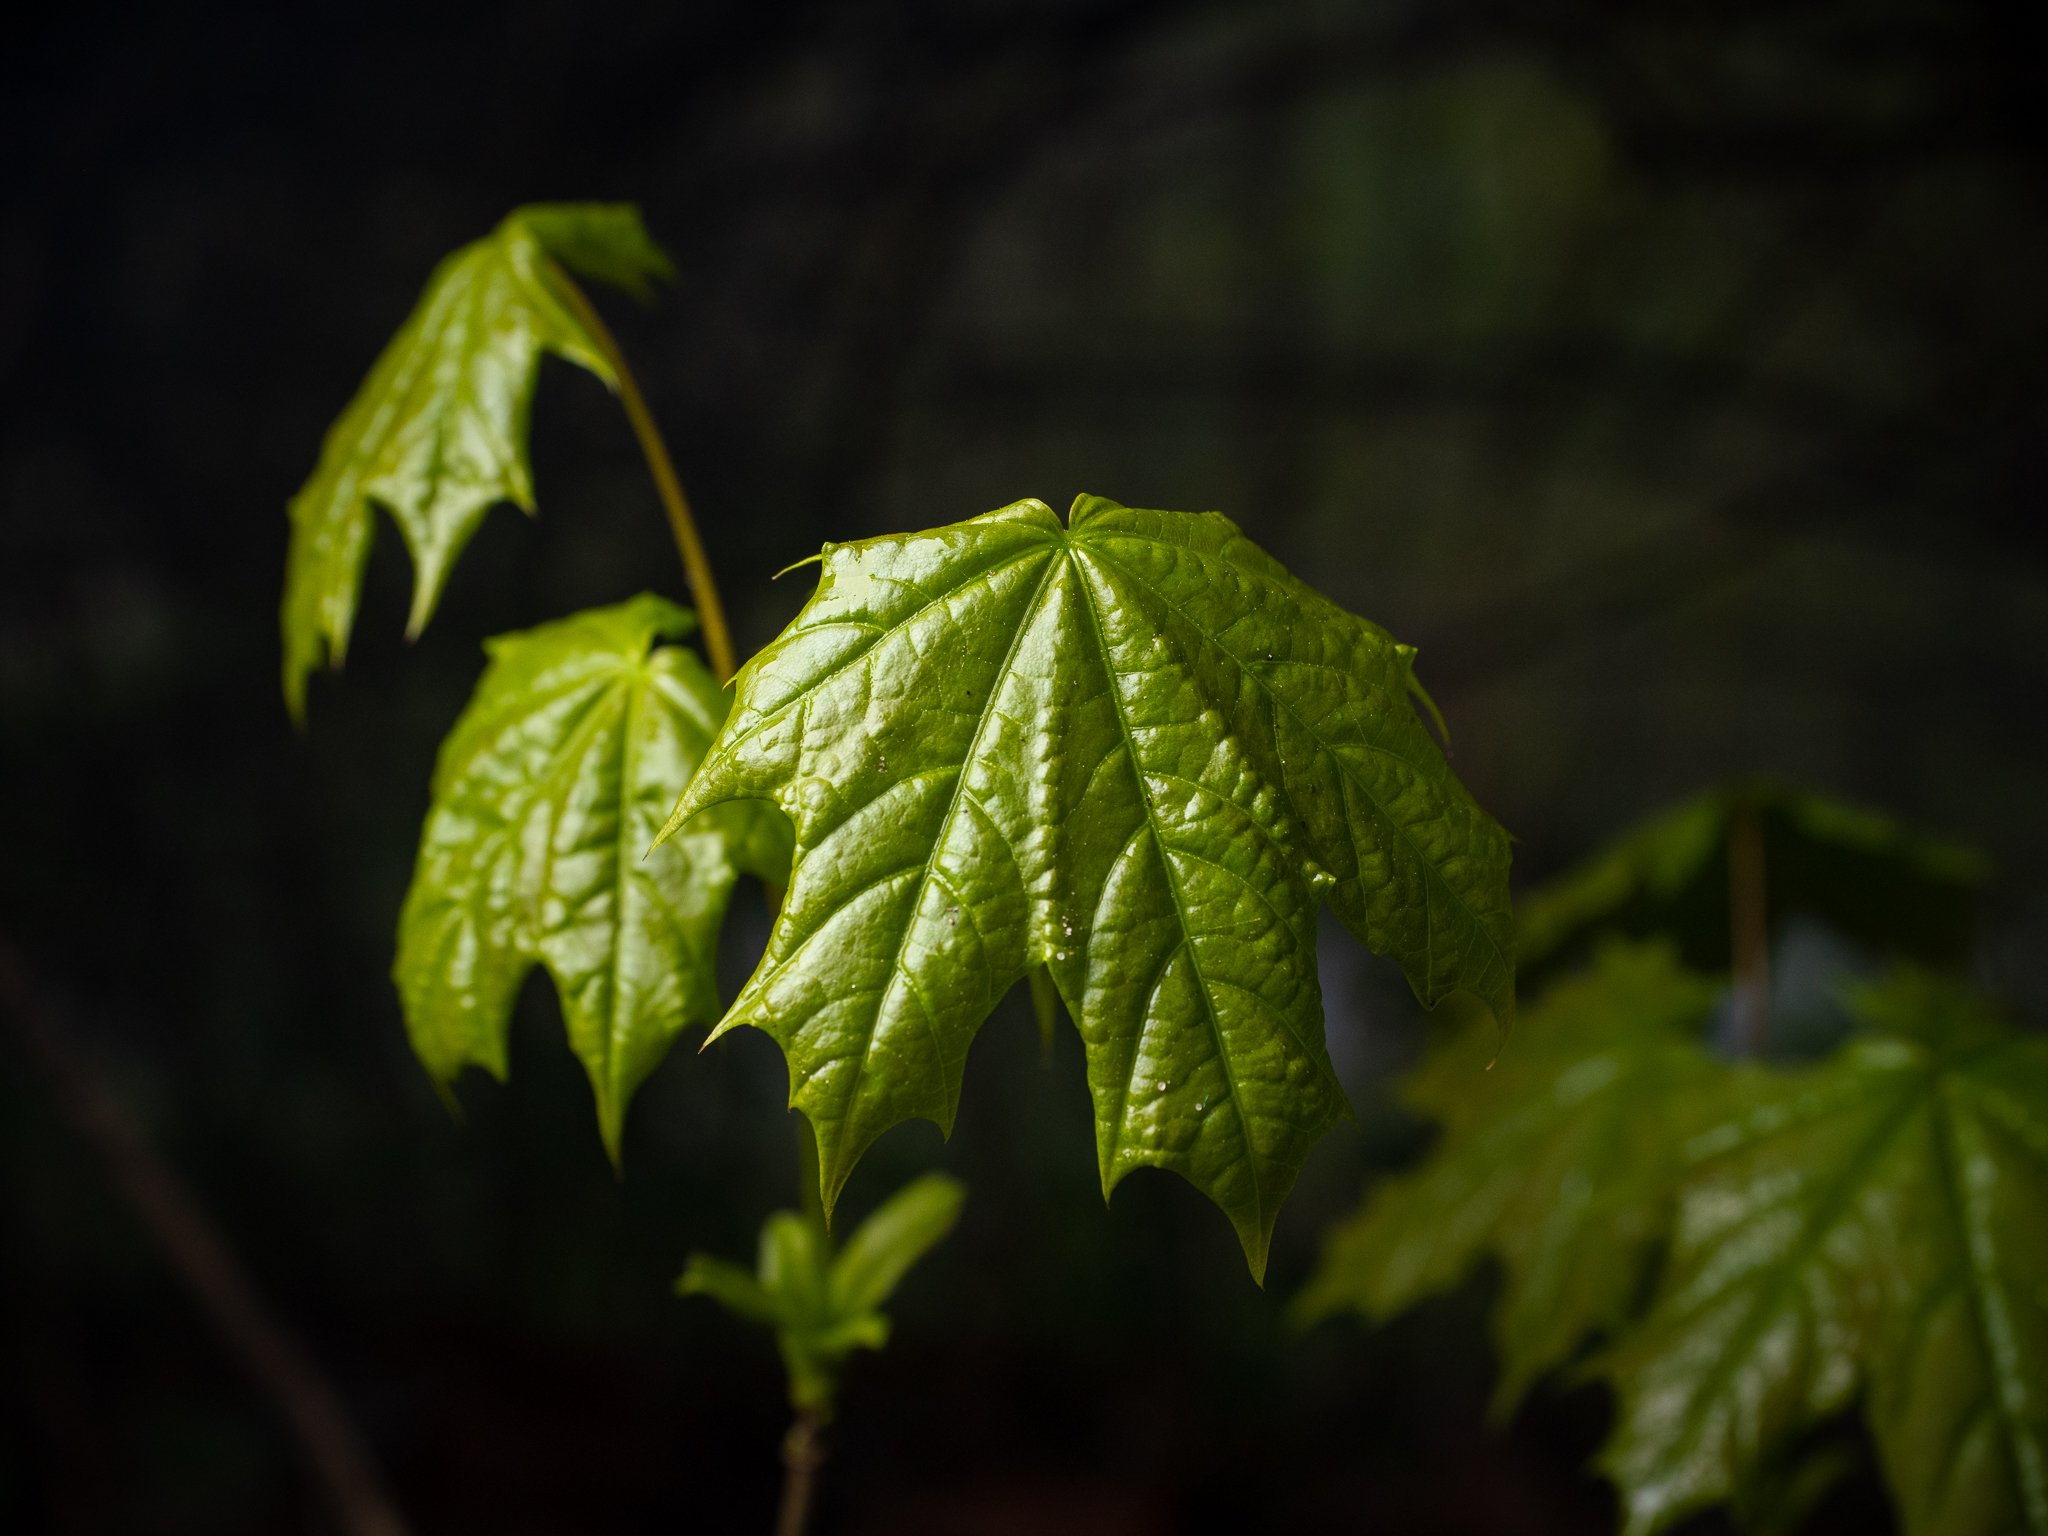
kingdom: Plantae
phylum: Tracheophyta
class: Magnoliopsida
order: Sapindales
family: Sapindaceae
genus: Acer
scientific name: Acer platanoides
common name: Norway maple
